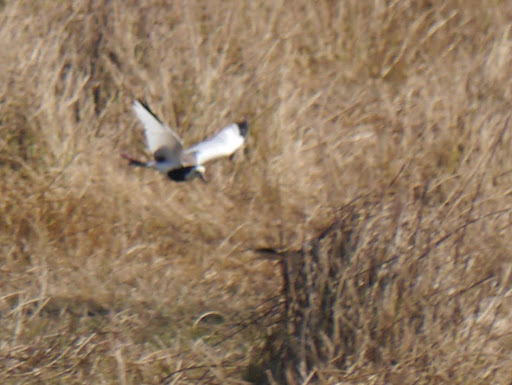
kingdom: Animalia
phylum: Chordata
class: Aves
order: Charadriiformes
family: Charadriidae
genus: Vanellus
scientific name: Vanellus crassirostris
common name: Long-toed lapwing
